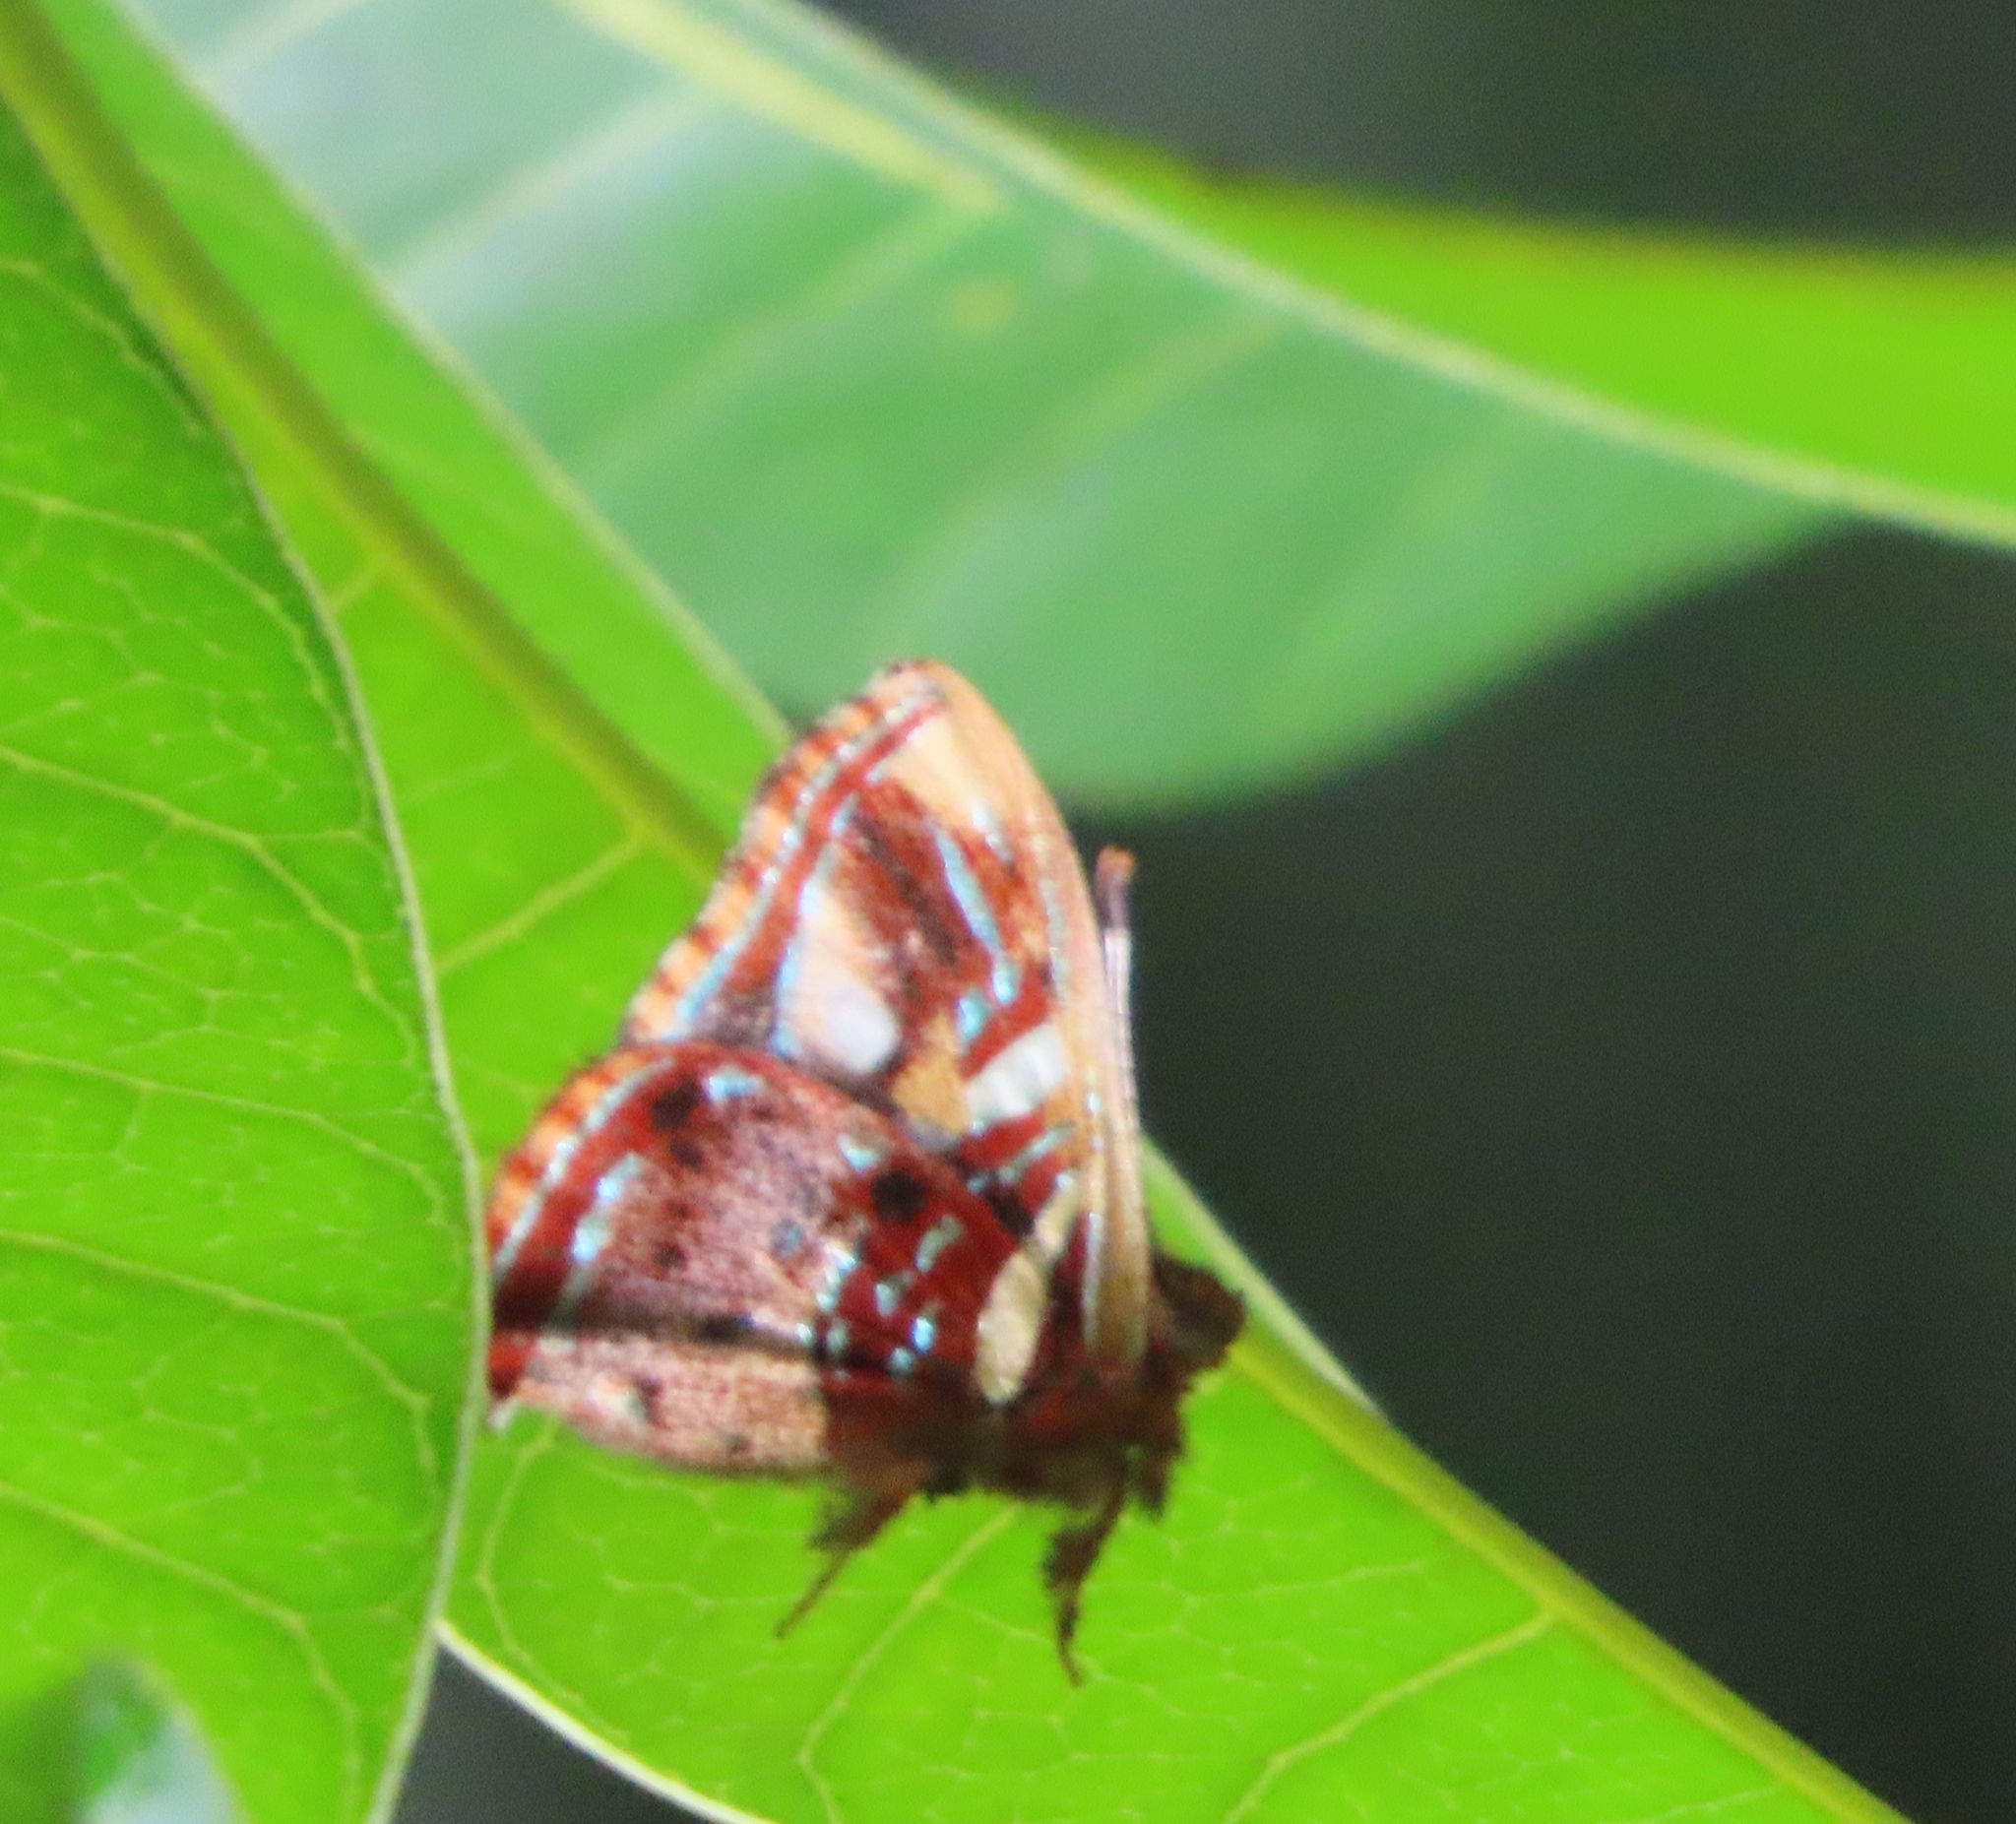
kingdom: Animalia
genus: Anteros
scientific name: Anteros carausius
